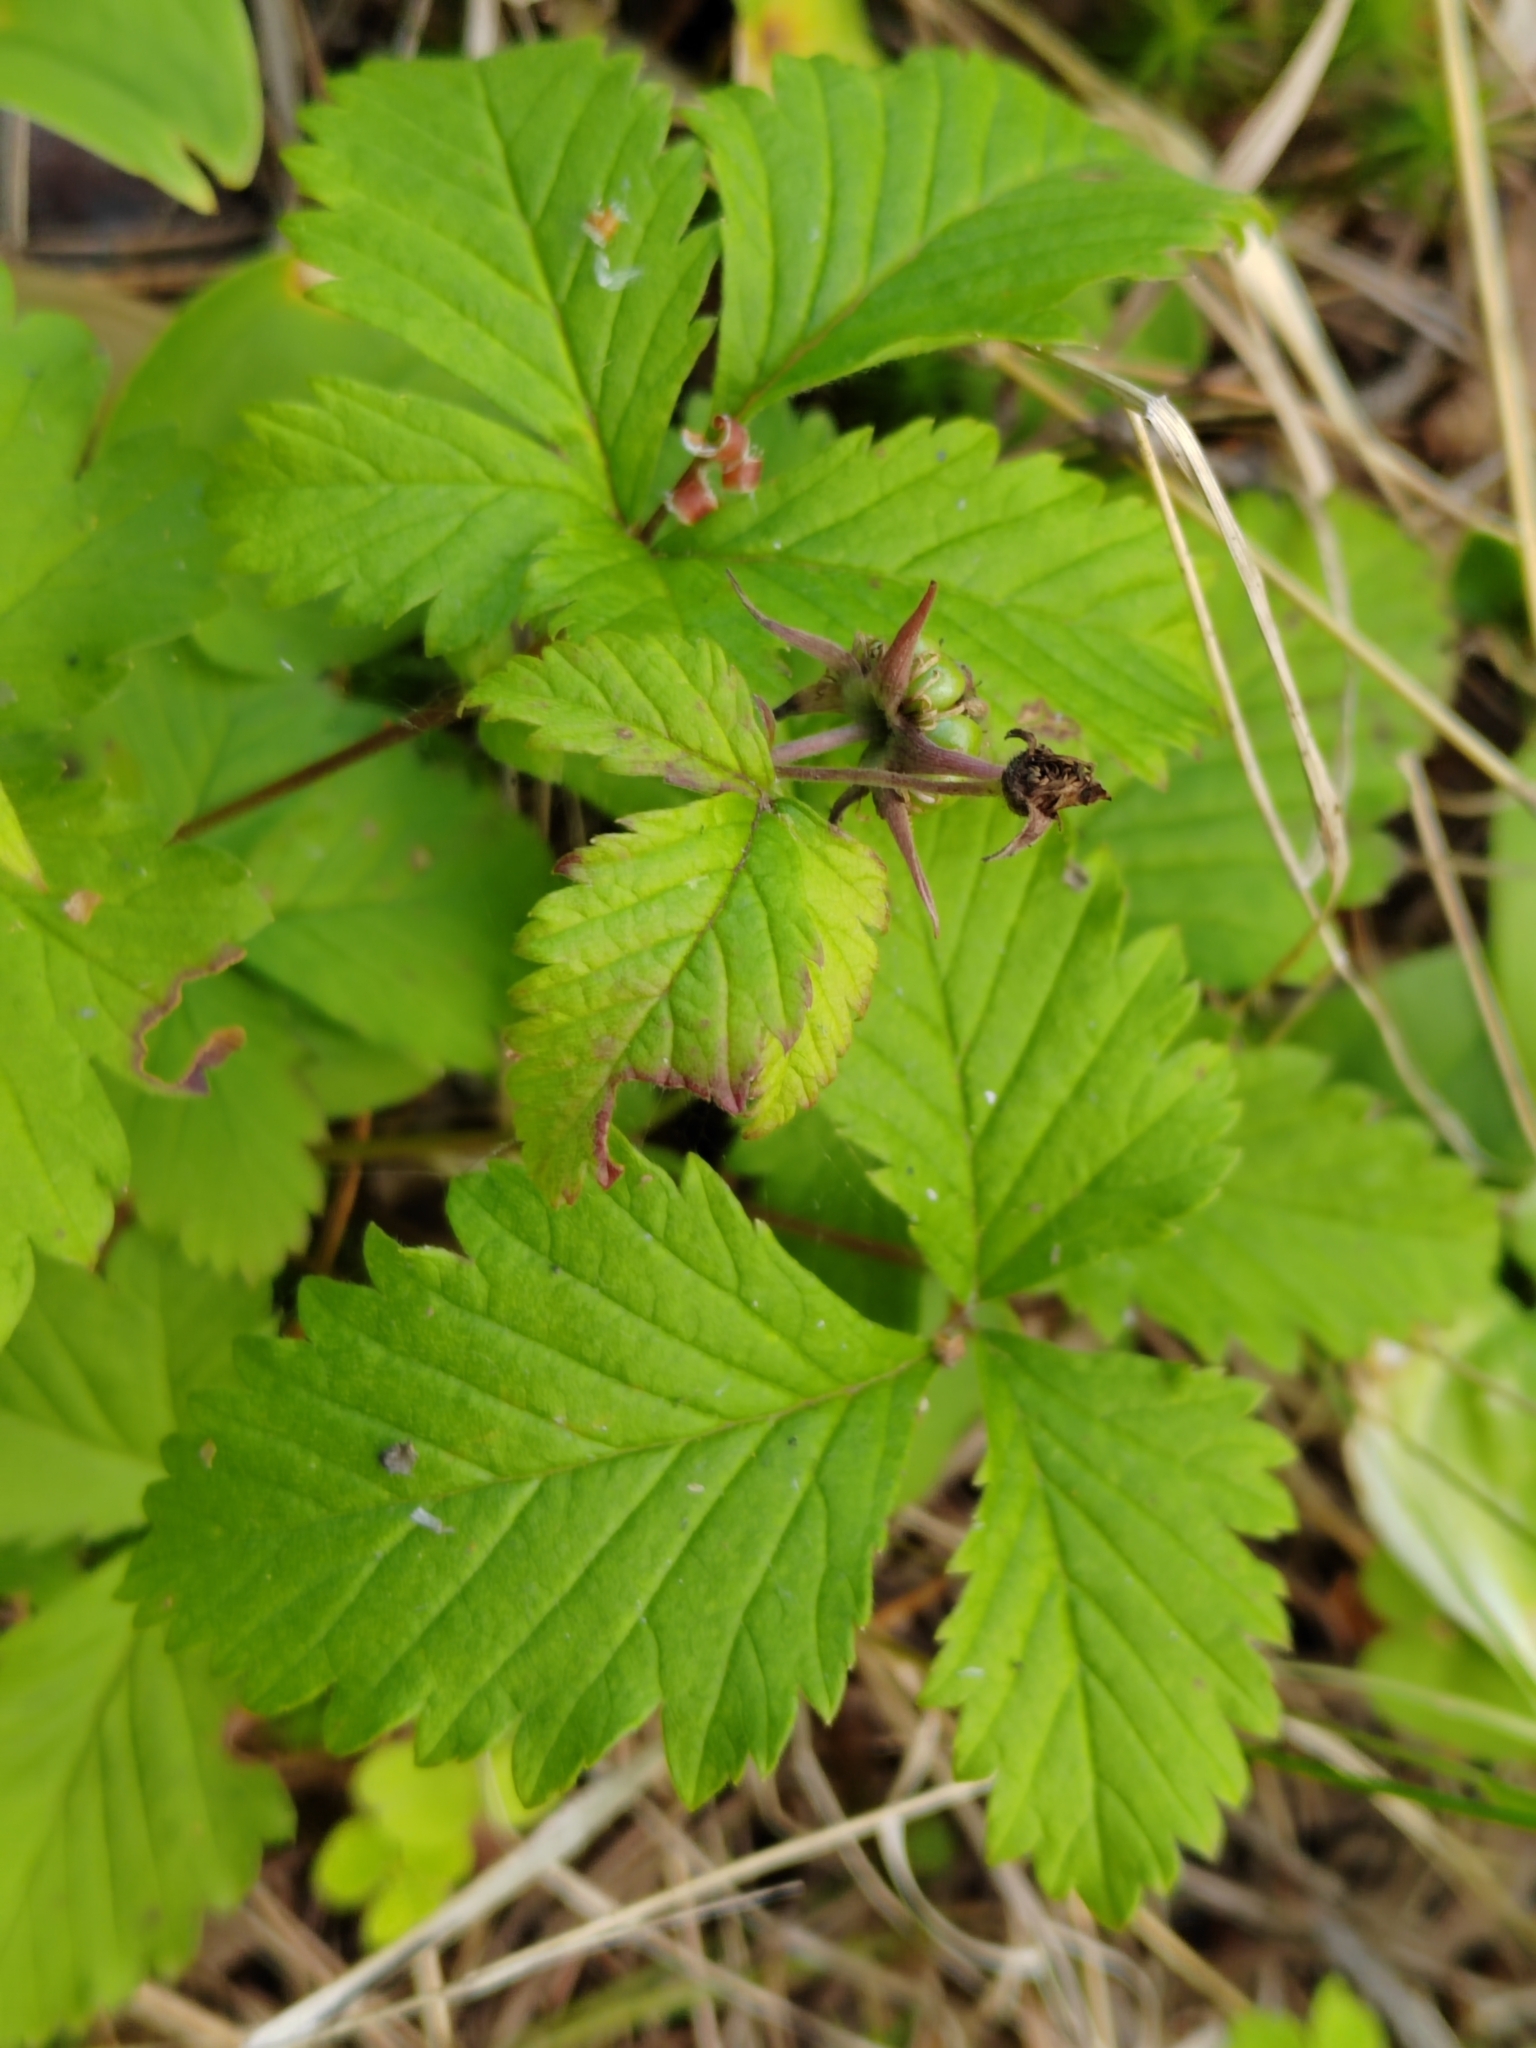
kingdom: Plantae
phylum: Tracheophyta
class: Magnoliopsida
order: Rosales
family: Rosaceae
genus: Rubus
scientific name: Rubus arcticus
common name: Arctic bramble
